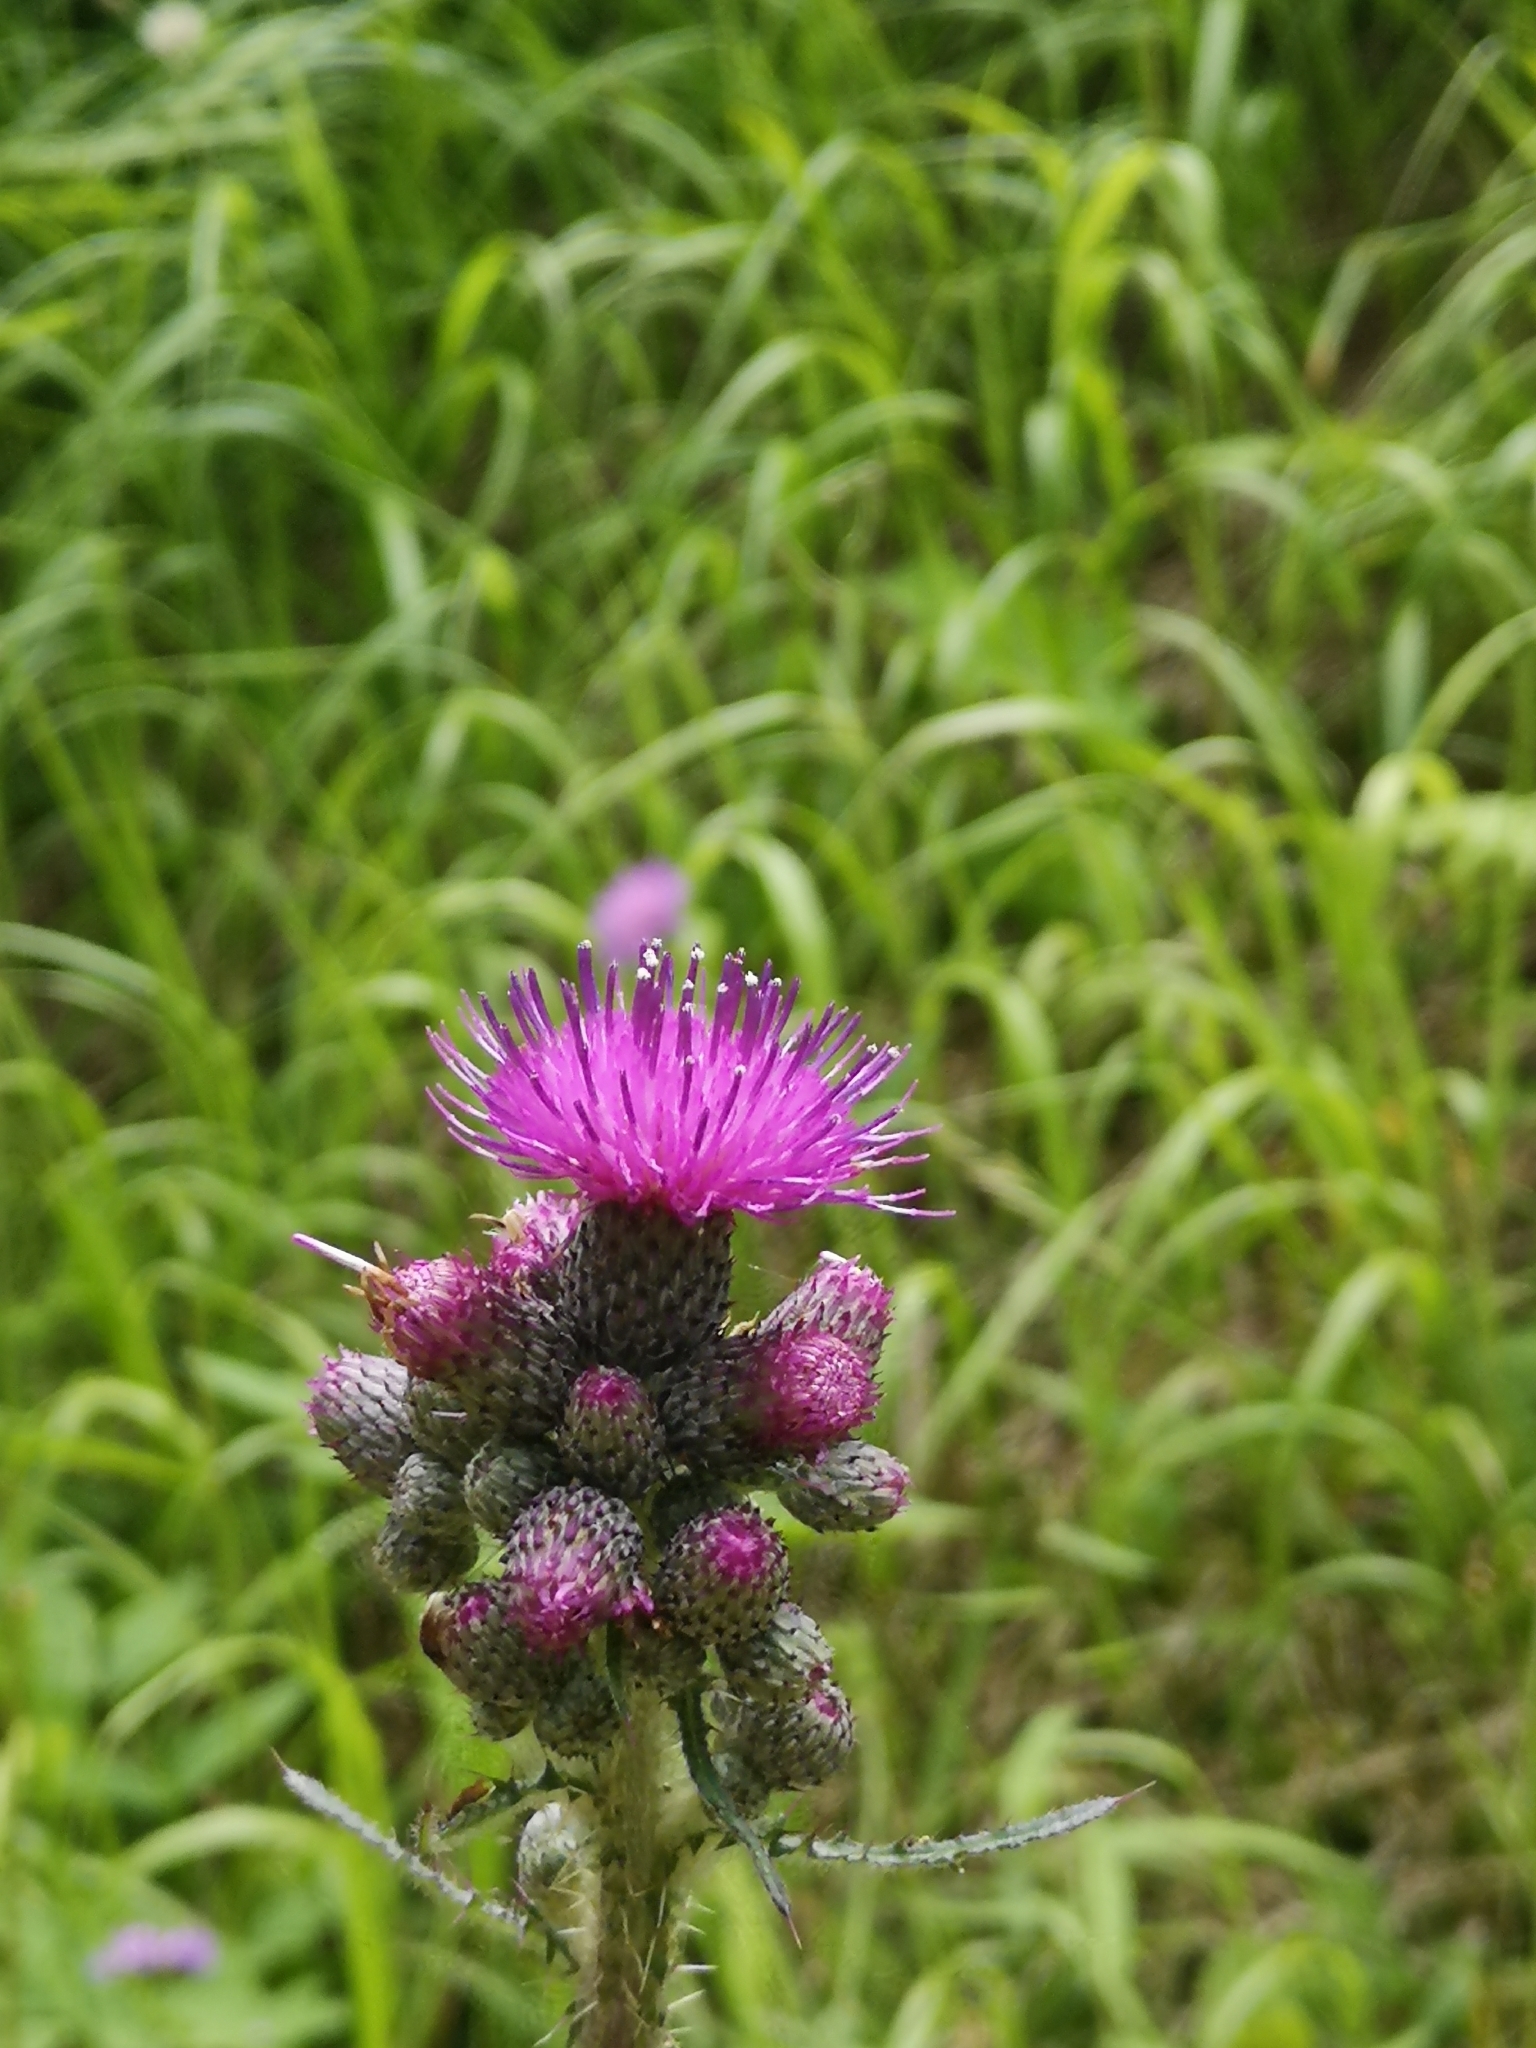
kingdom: Plantae
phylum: Tracheophyta
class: Magnoliopsida
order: Asterales
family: Asteraceae
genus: Cirsium
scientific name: Cirsium palustre
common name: Marsh thistle
